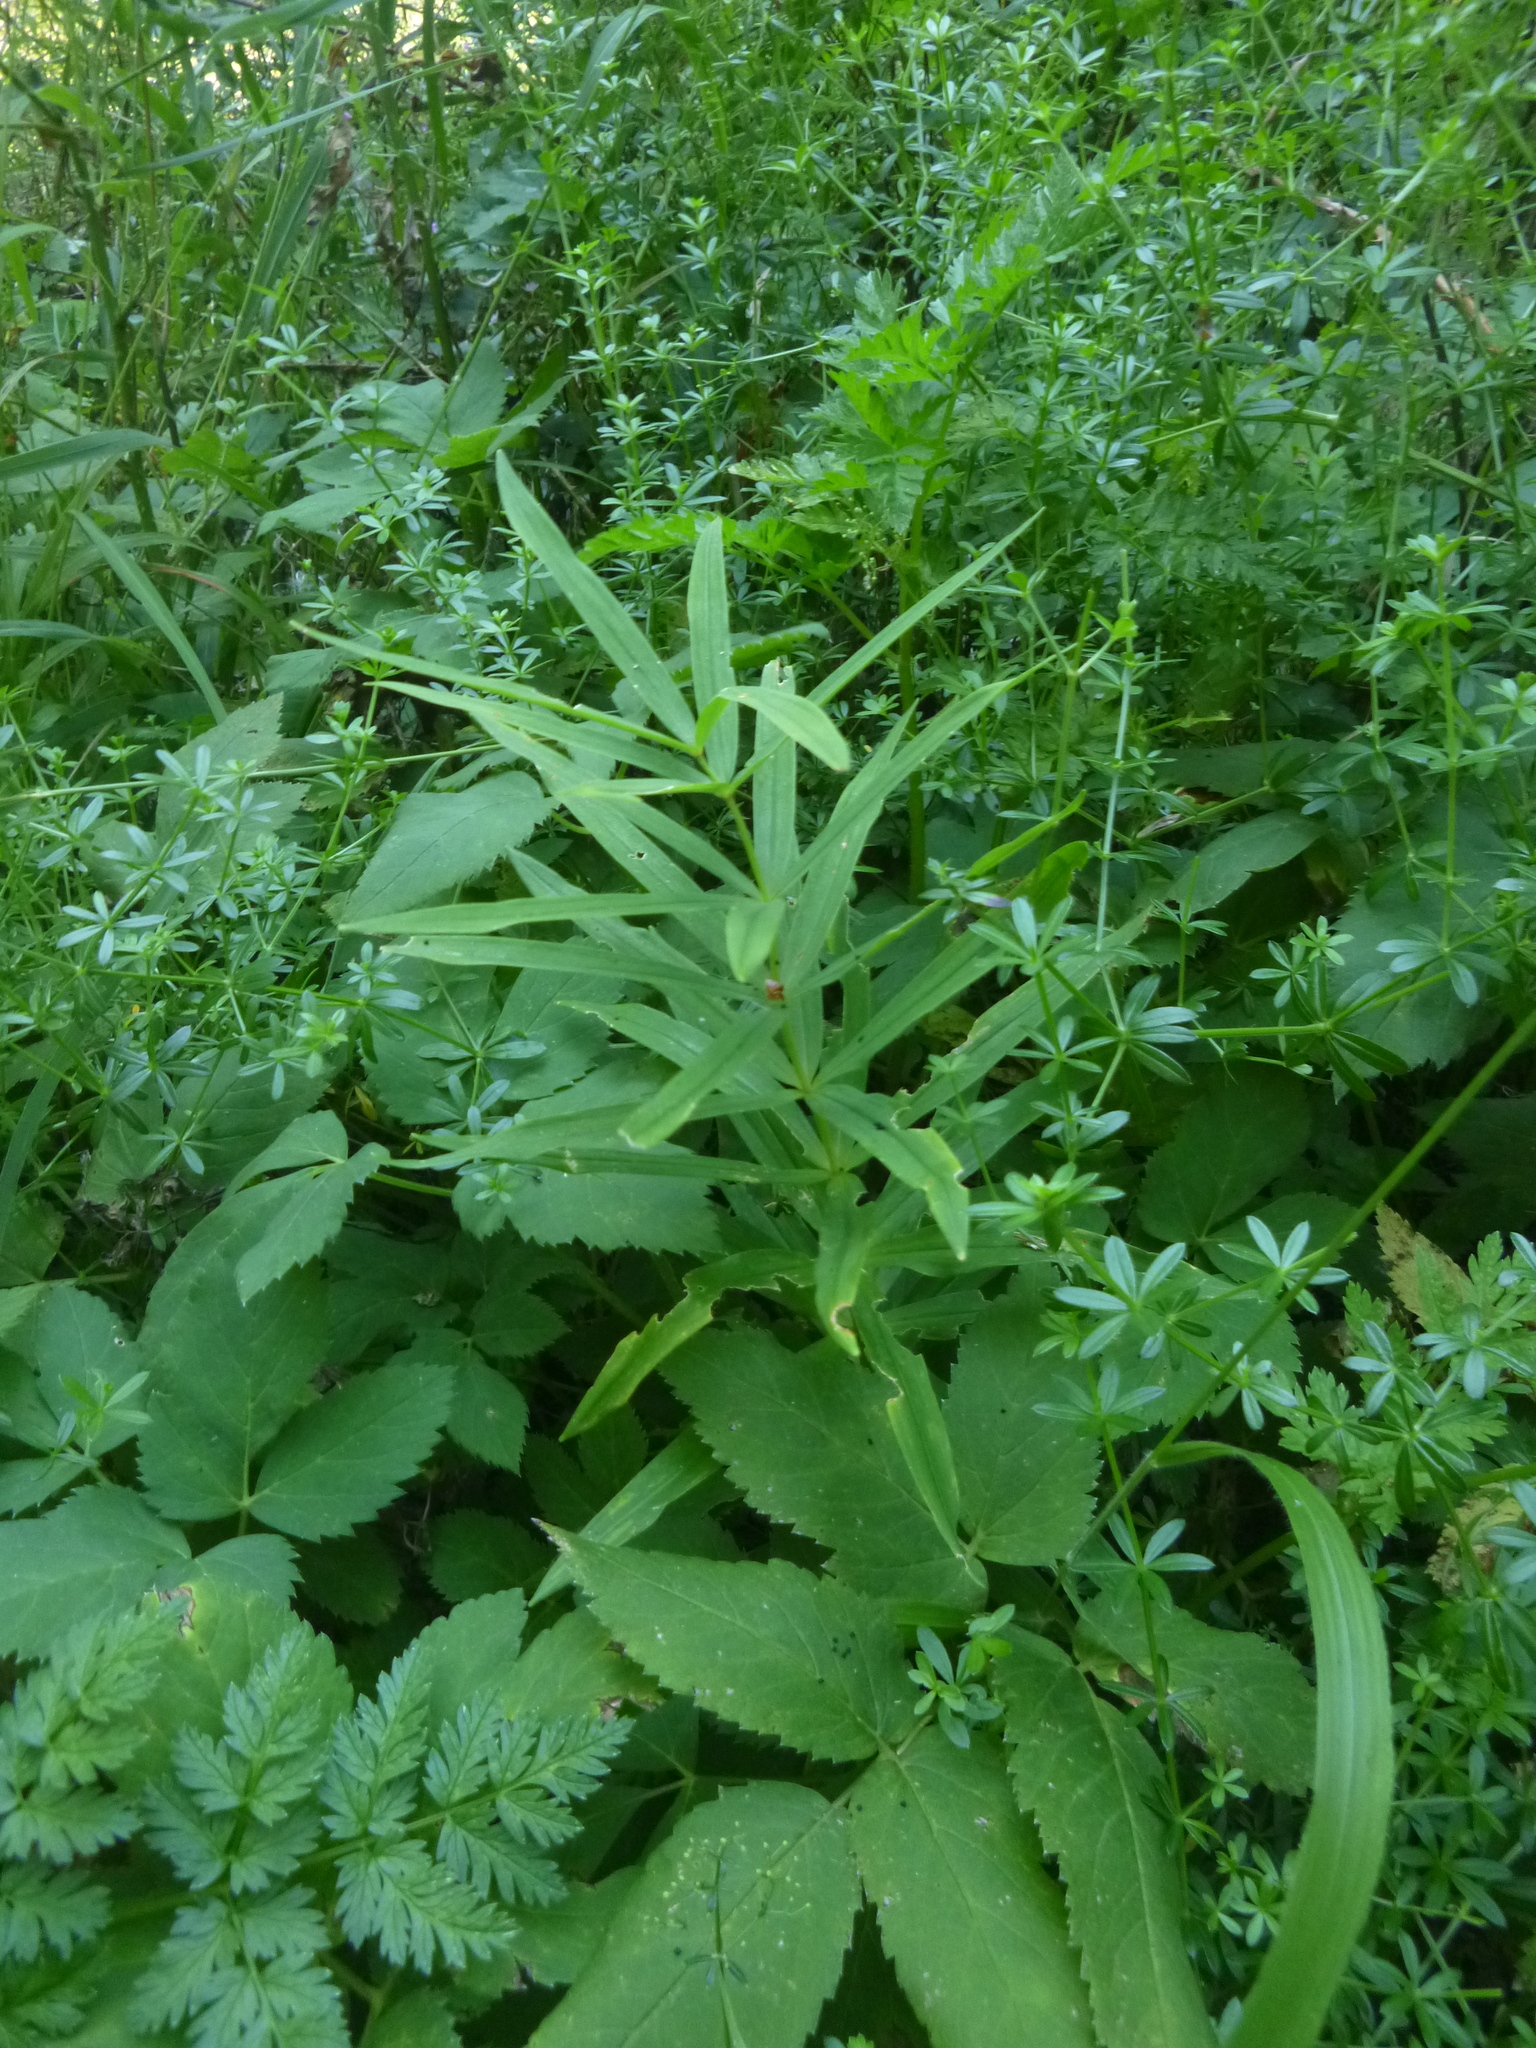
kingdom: Plantae
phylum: Tracheophyta
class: Liliopsida
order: Asparagales
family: Asparagaceae
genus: Polygonatum
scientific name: Polygonatum verticillatum
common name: Whorled solomon's-seal
